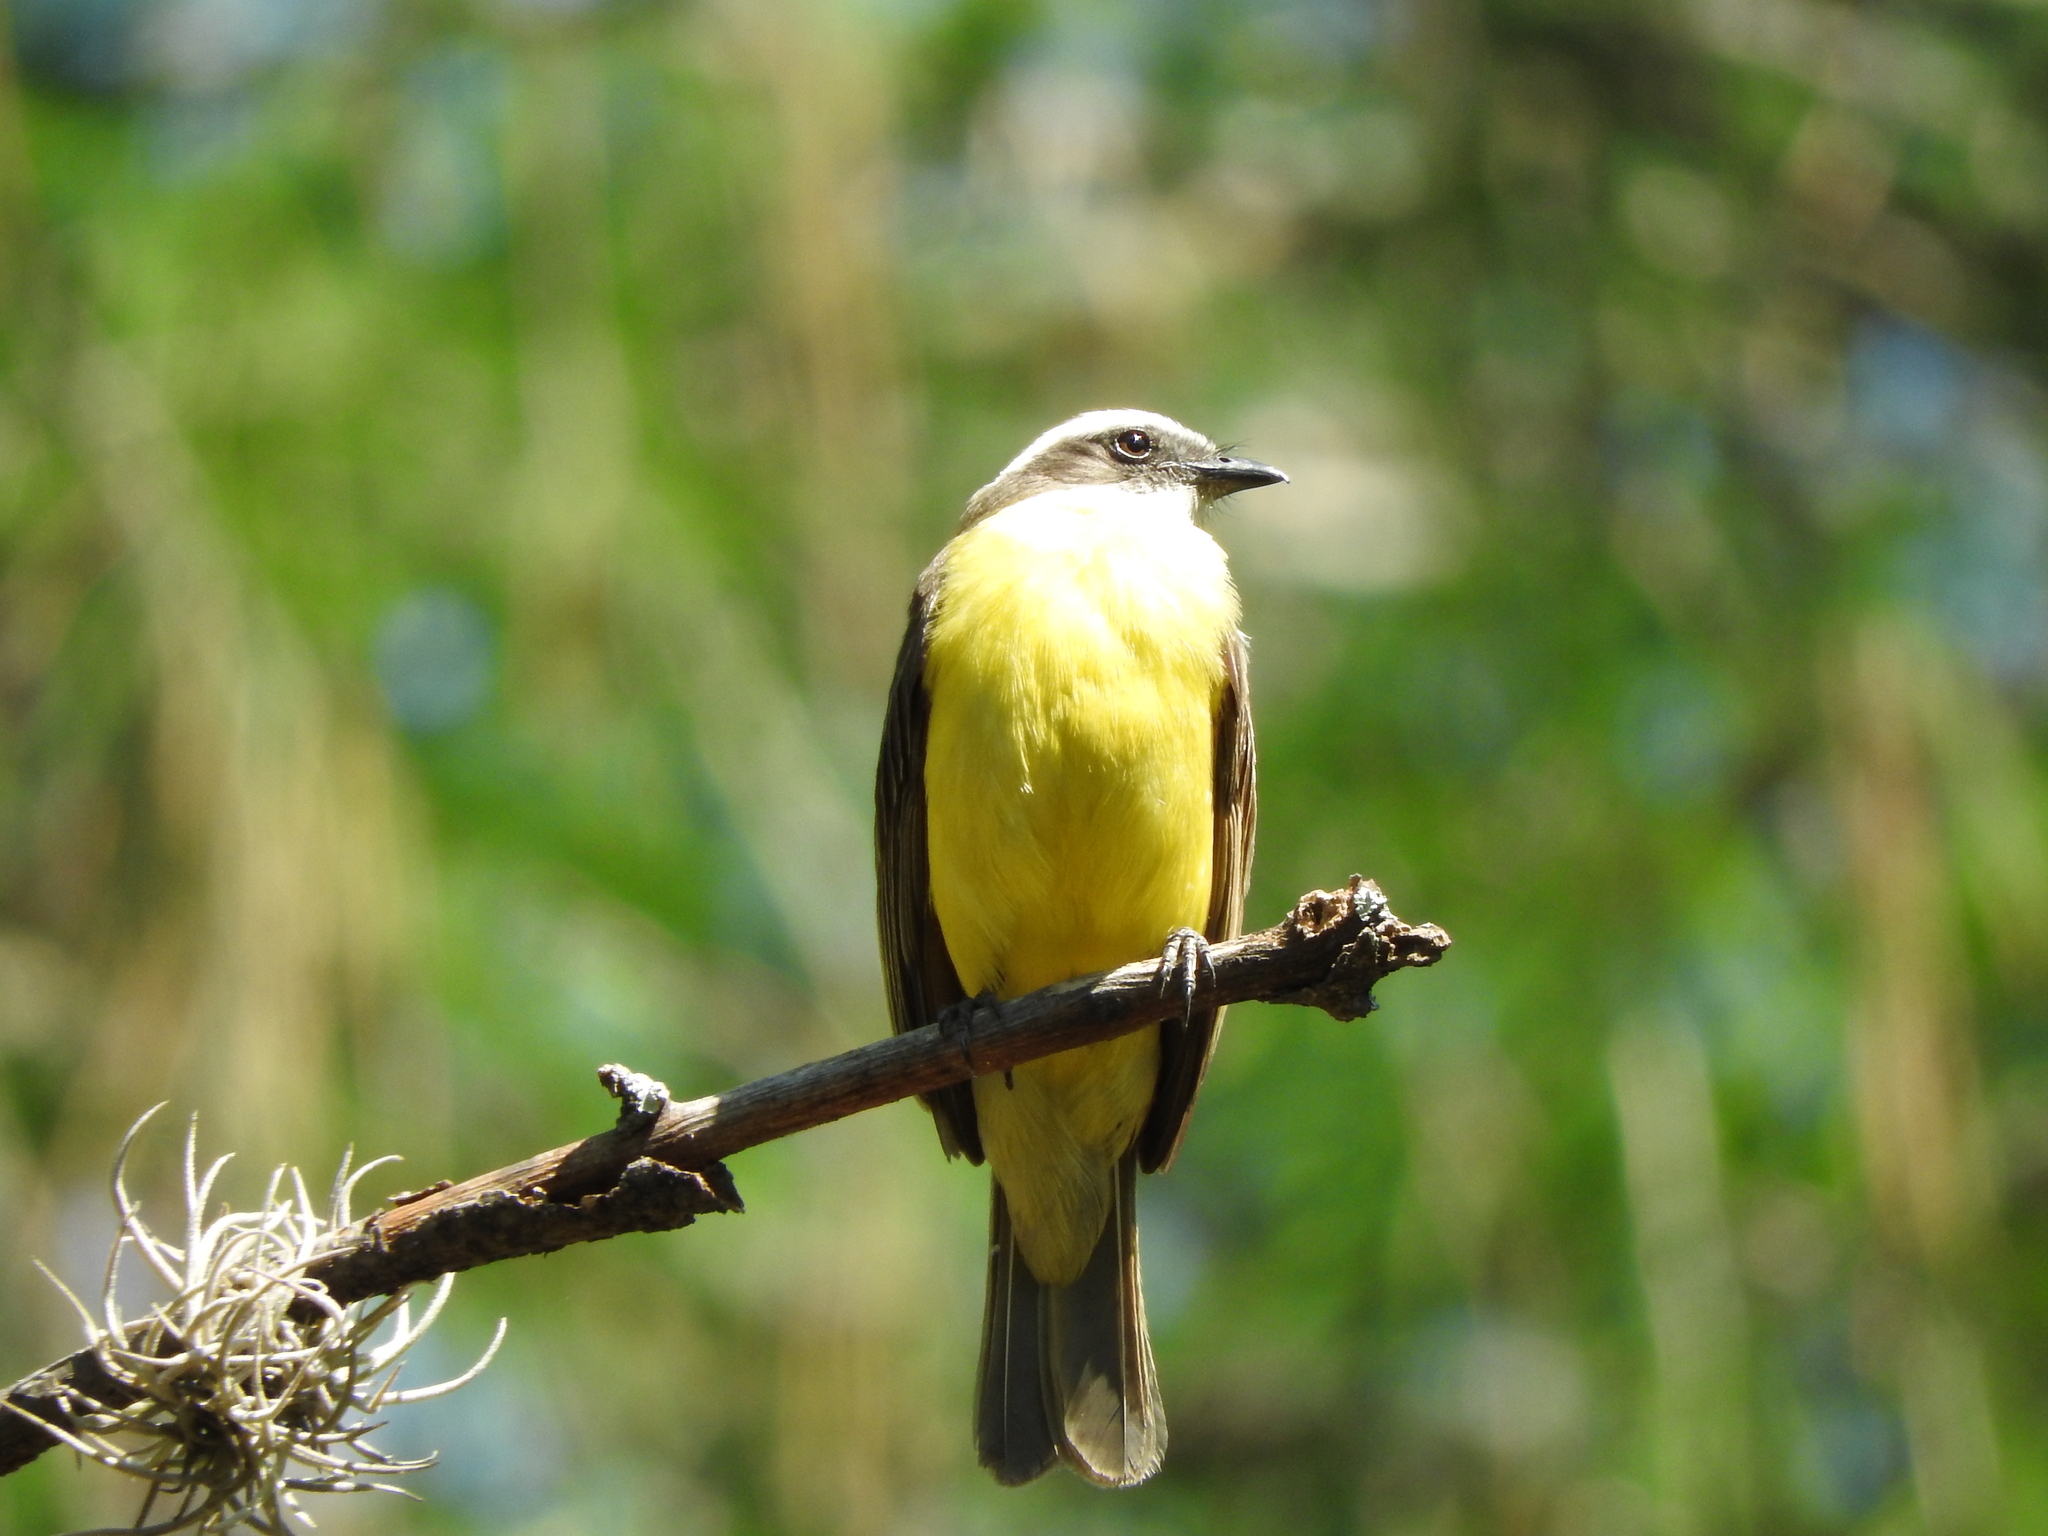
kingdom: Animalia
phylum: Chordata
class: Aves
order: Passeriformes
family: Tyrannidae
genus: Myiozetetes
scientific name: Myiozetetes similis
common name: Social flycatcher
